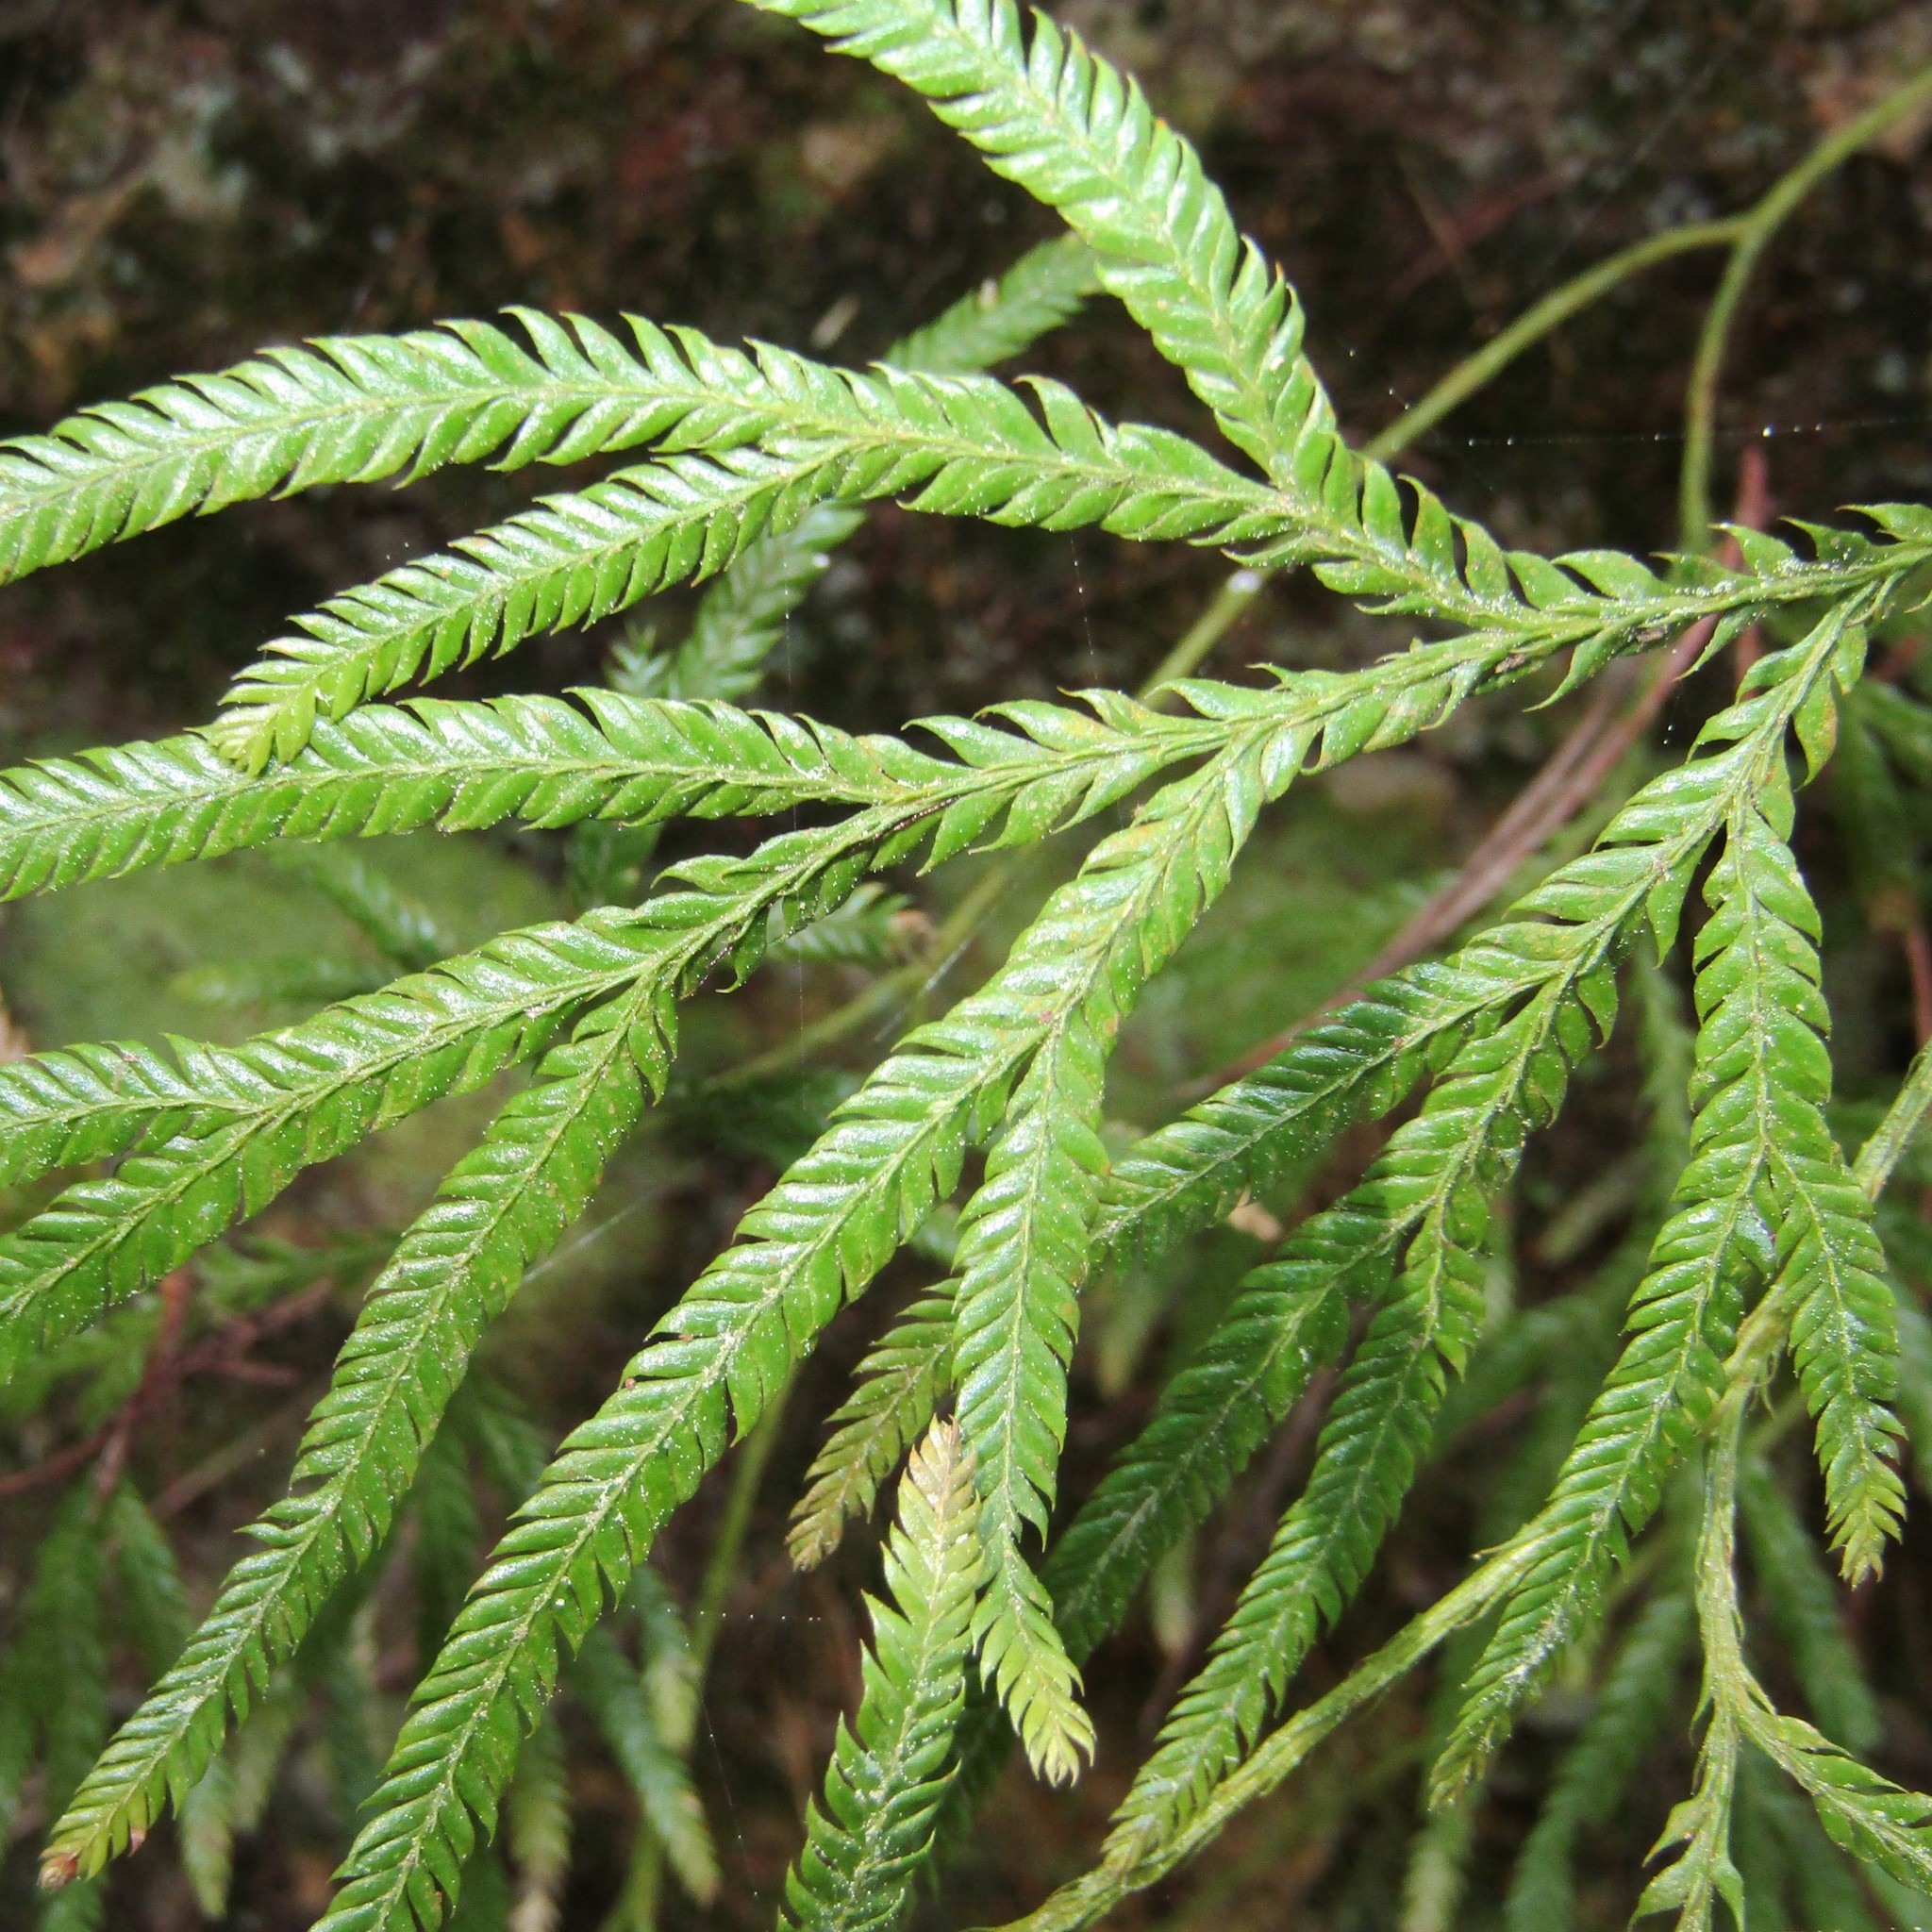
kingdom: Plantae
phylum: Tracheophyta
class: Lycopodiopsida
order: Lycopodiales
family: Lycopodiaceae
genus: Lycopodium
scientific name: Lycopodium volubile
